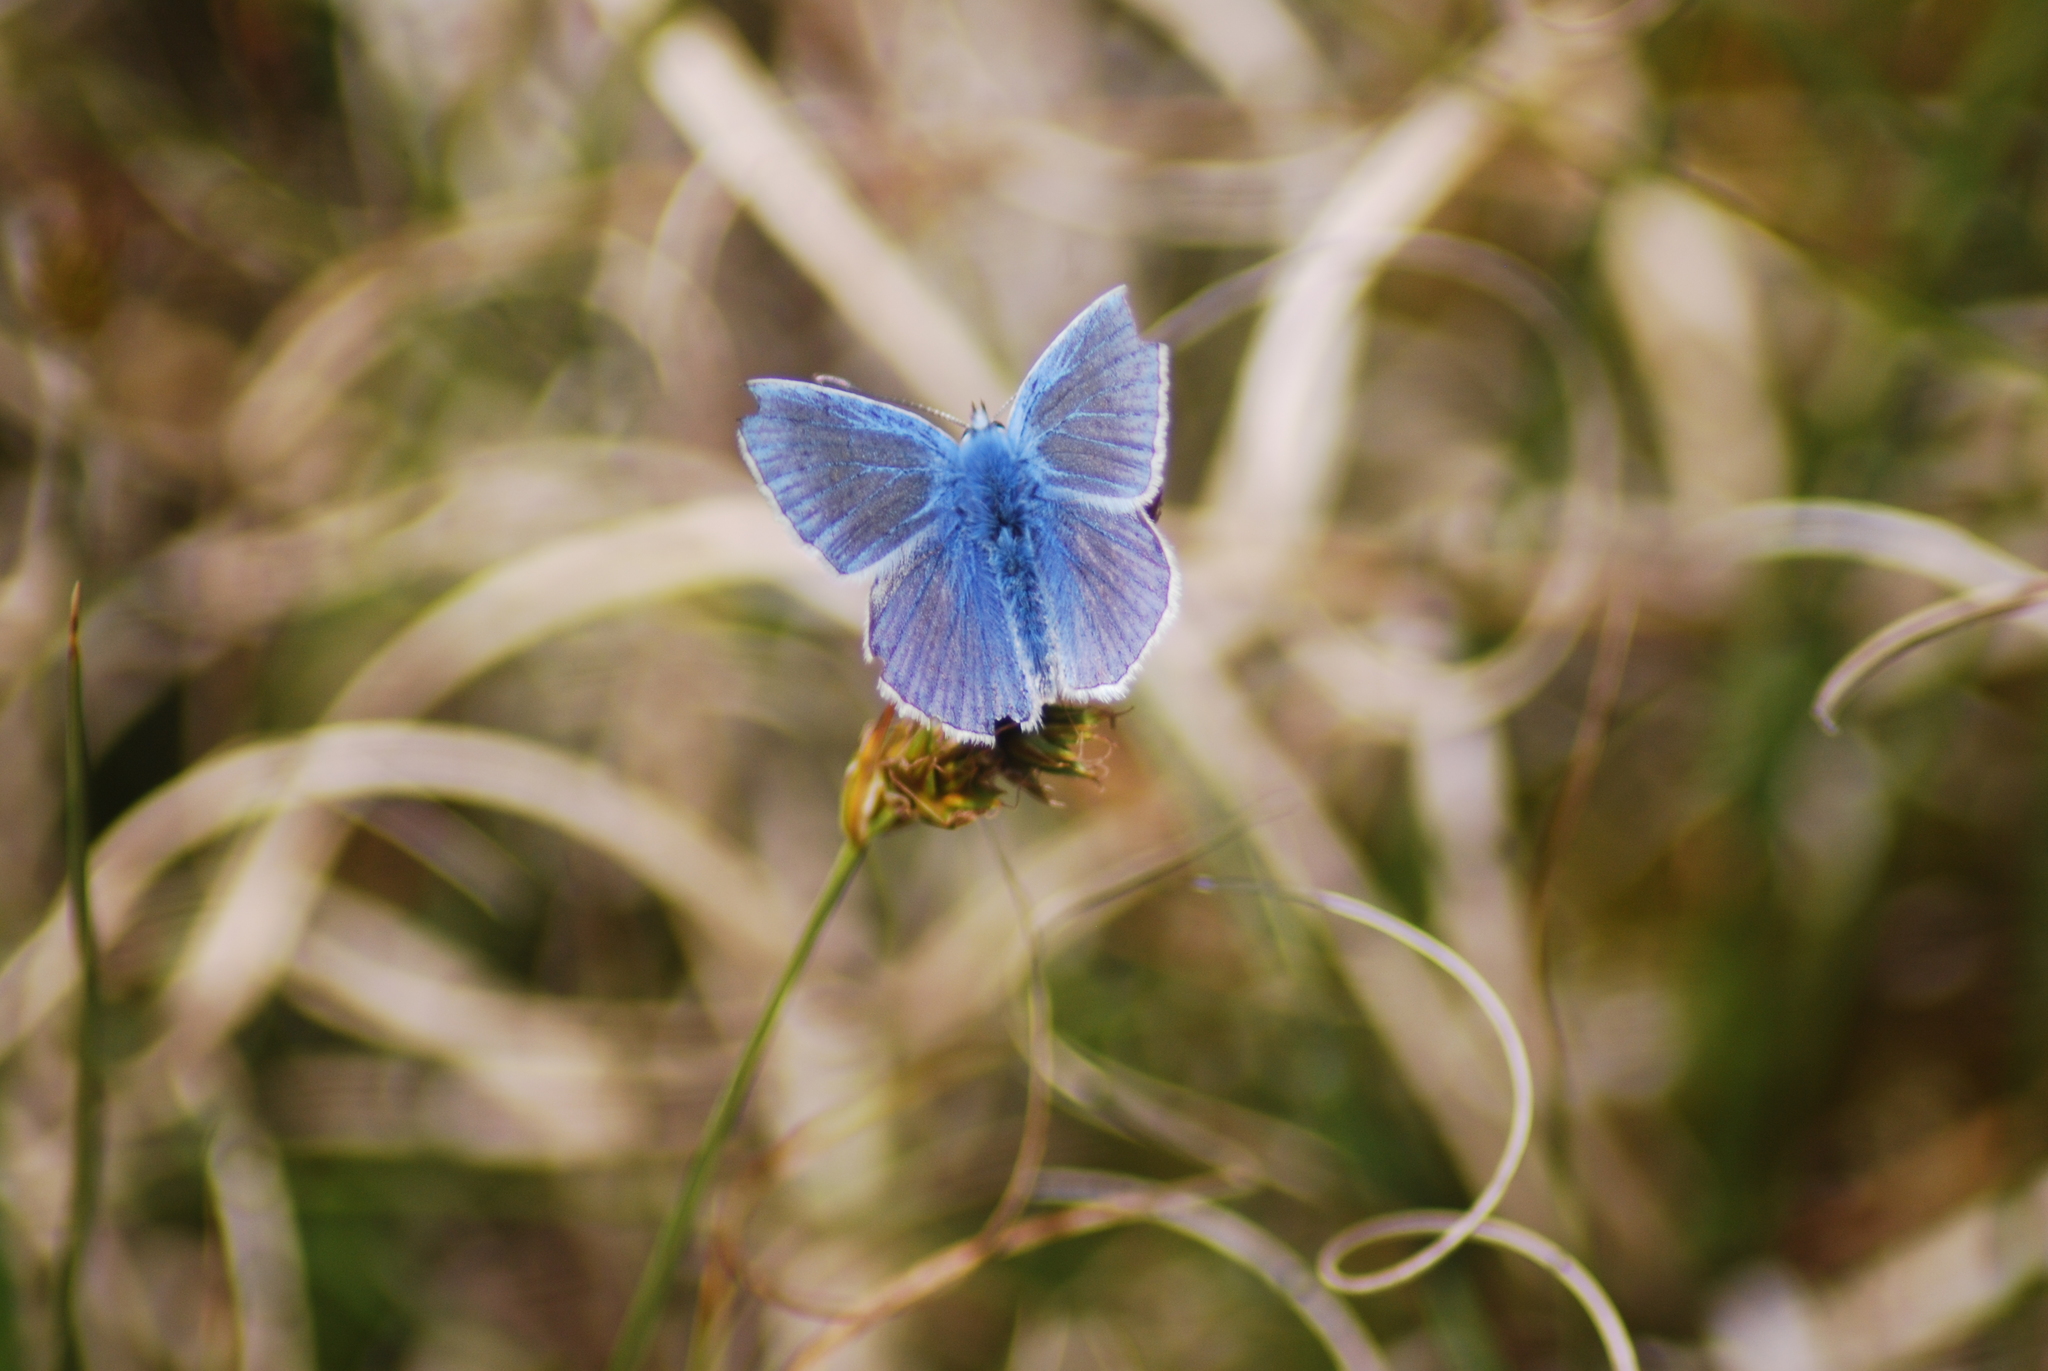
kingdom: Animalia
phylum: Arthropoda
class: Insecta
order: Lepidoptera
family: Lycaenidae
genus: Polyommatus
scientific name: Polyommatus icarus
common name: Common blue
